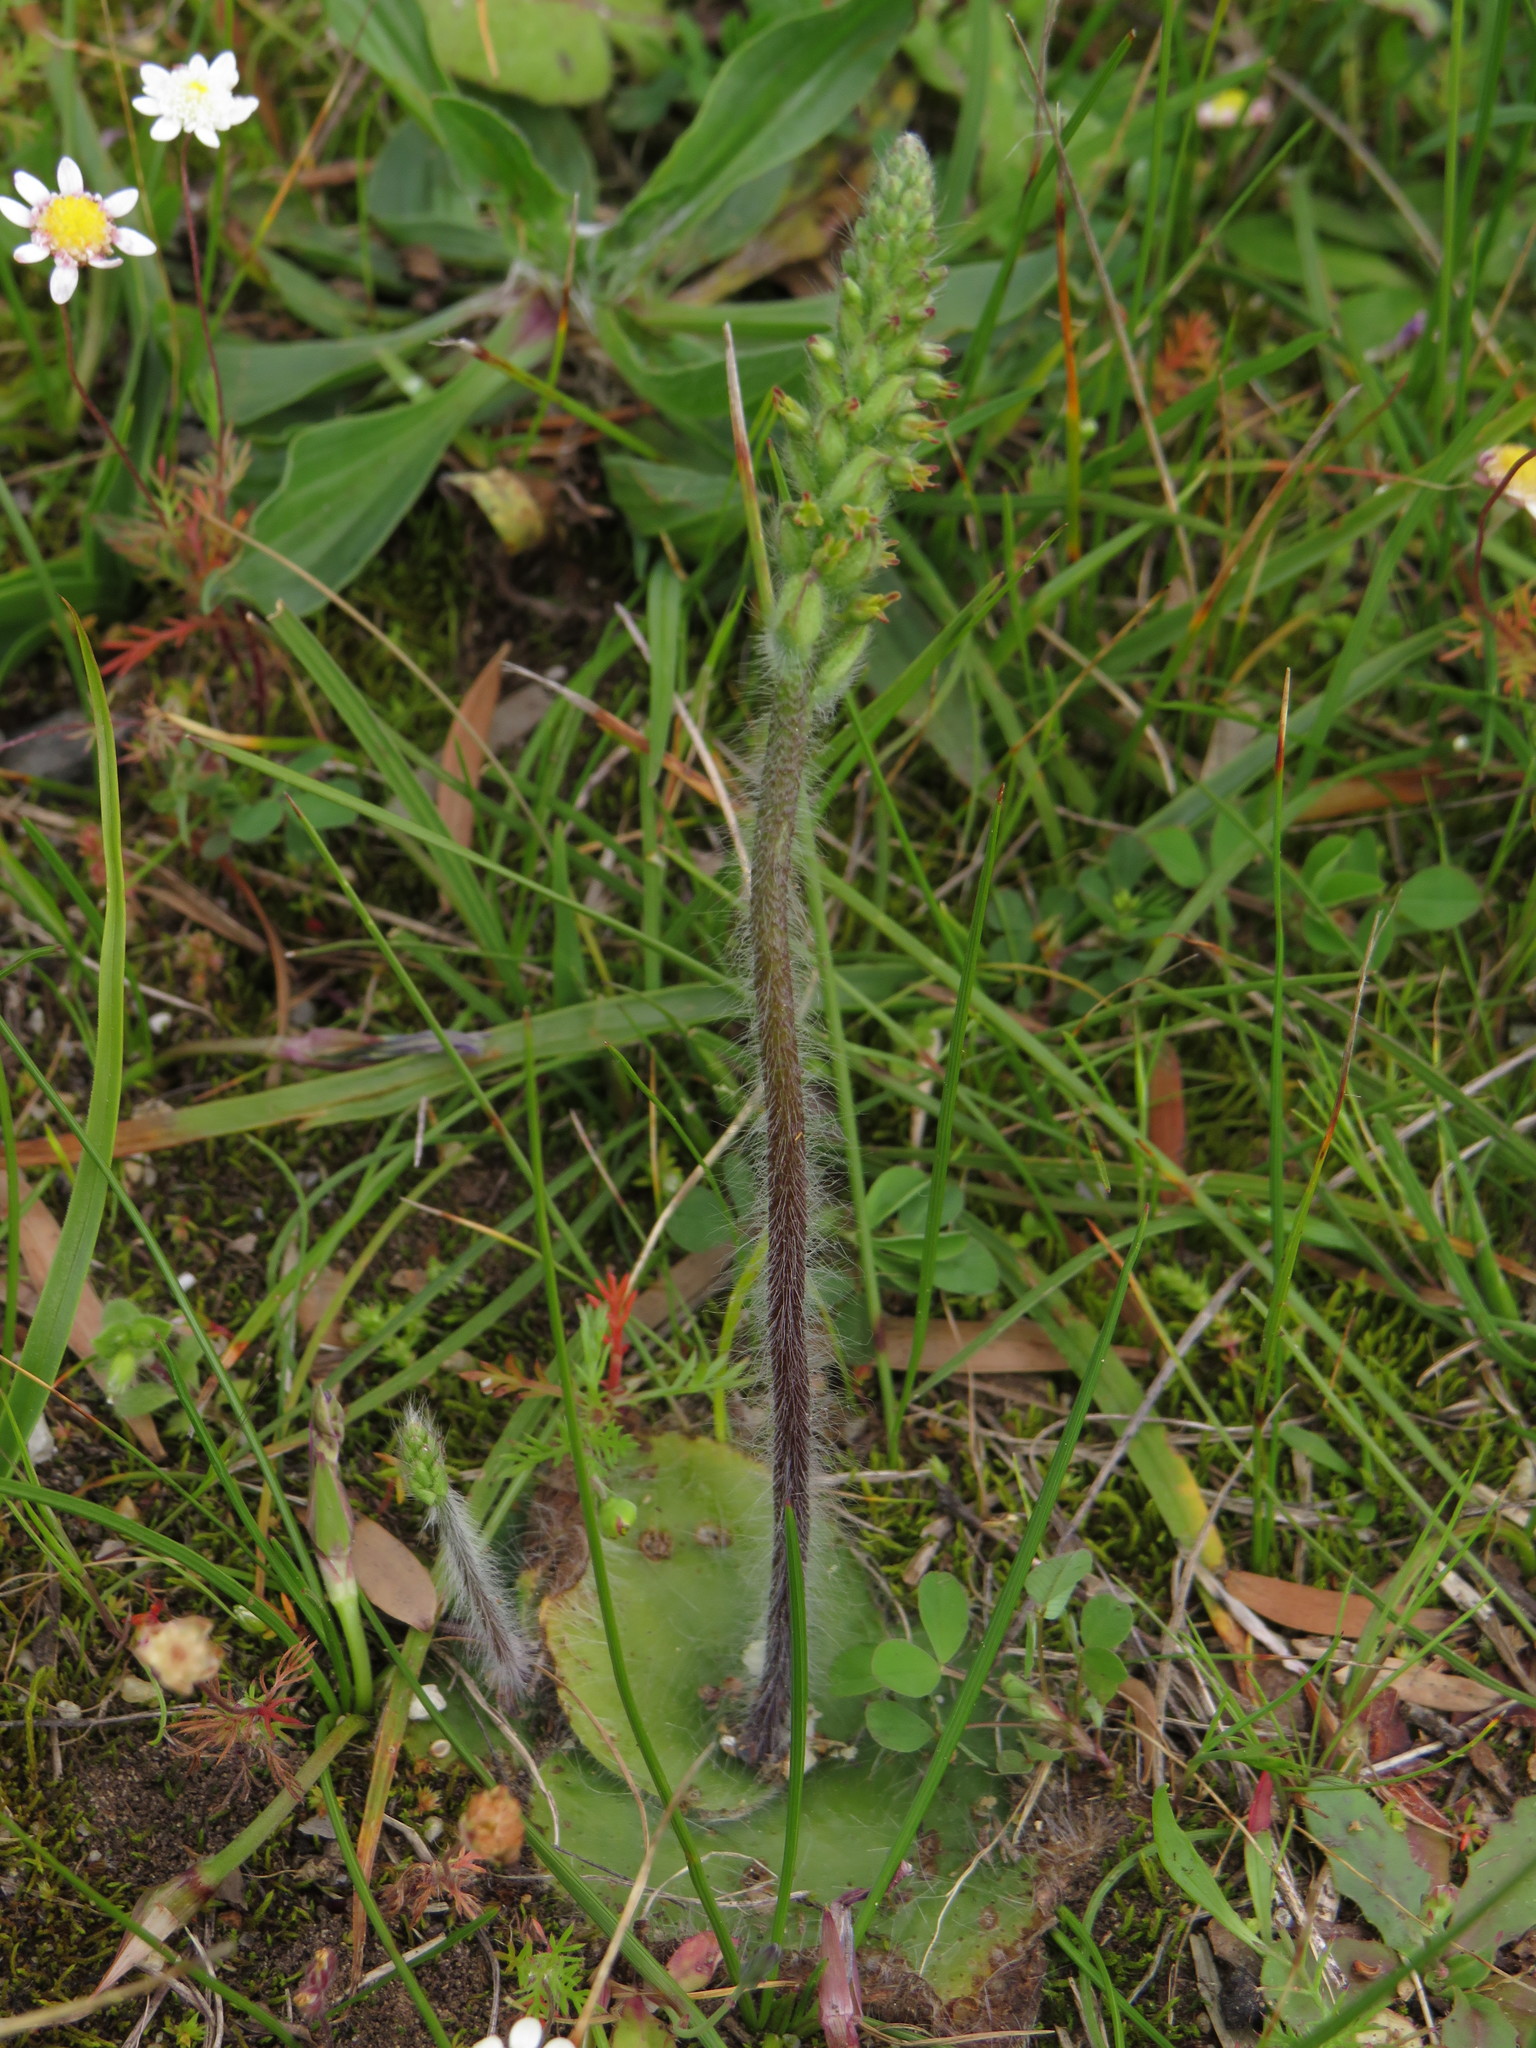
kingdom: Plantae
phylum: Tracheophyta
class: Liliopsida
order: Asparagales
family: Orchidaceae
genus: Holothrix
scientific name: Holothrix villosa
